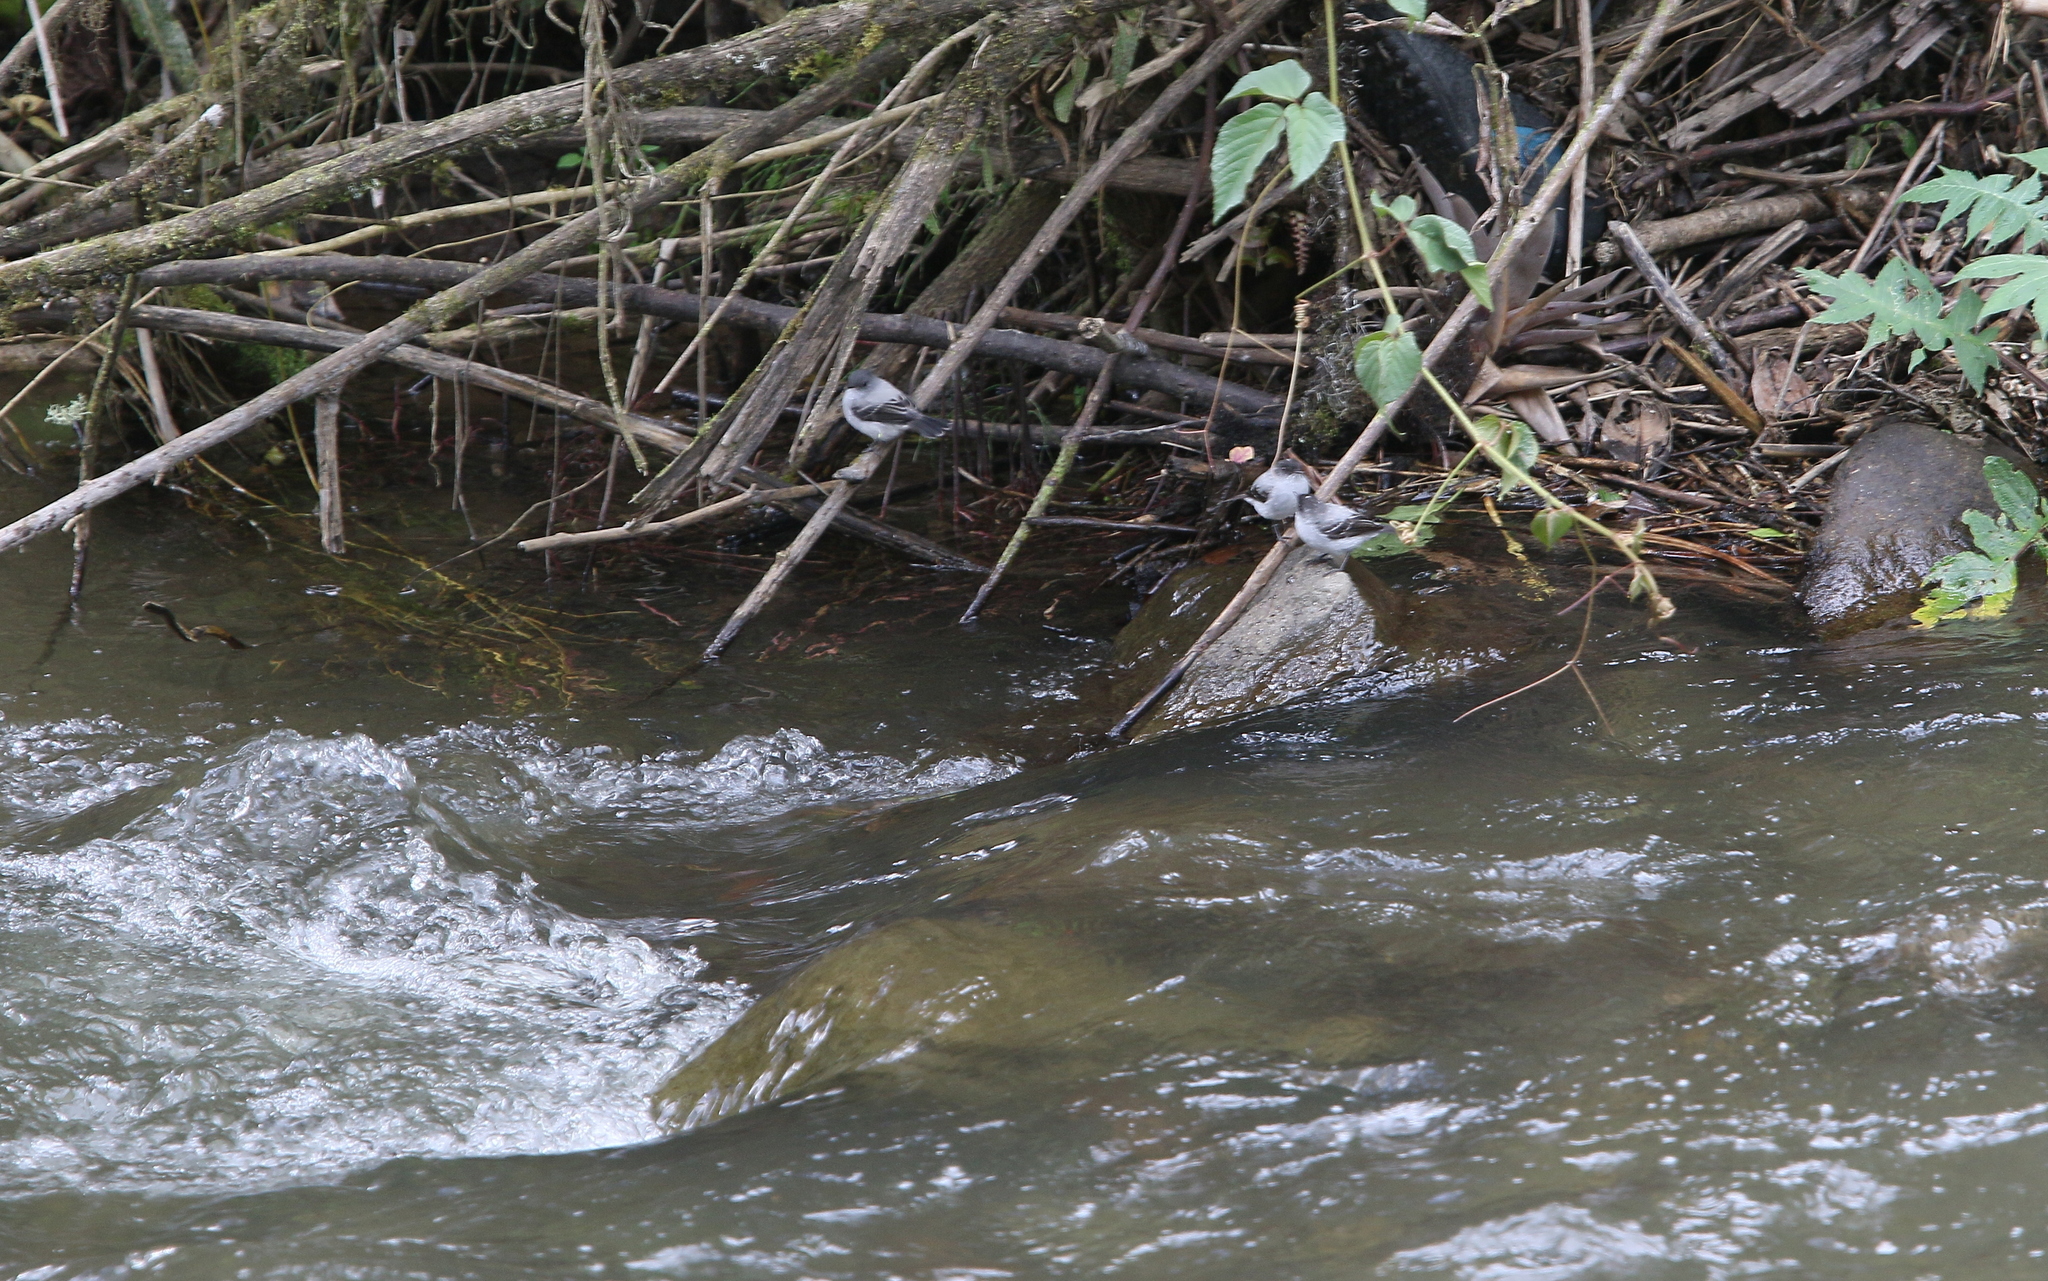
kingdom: Animalia
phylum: Chordata
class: Aves
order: Passeriformes
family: Tyrannidae
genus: Serpophaga
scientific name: Serpophaga cinerea
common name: Torrent tyrannulet
